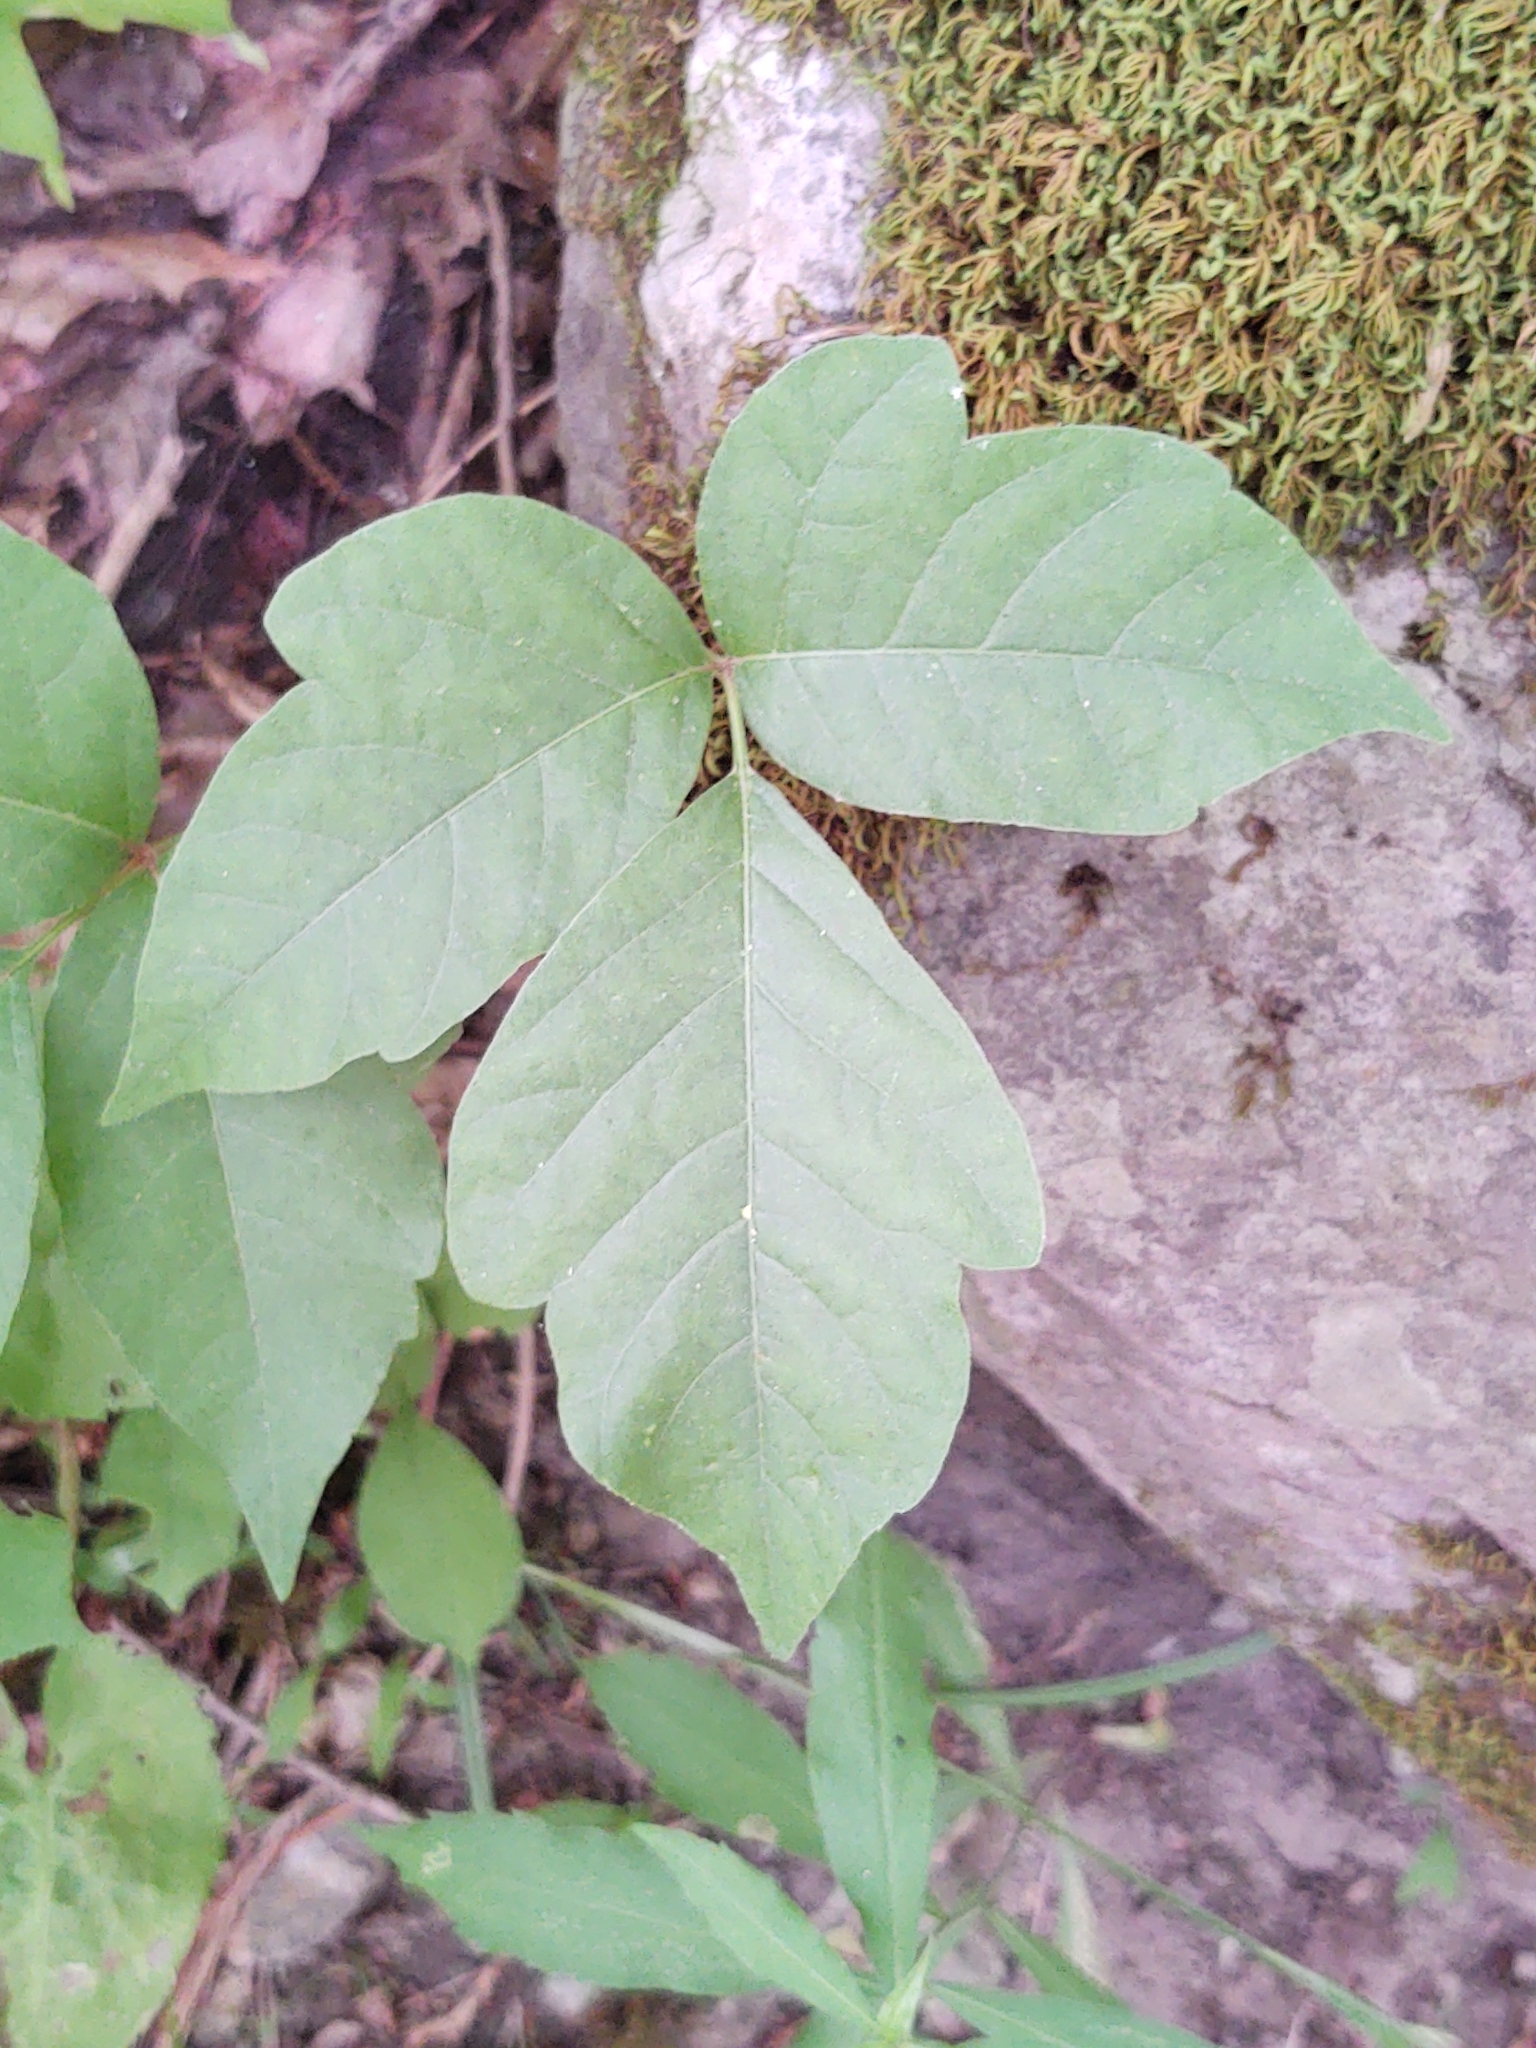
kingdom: Plantae
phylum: Tracheophyta
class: Magnoliopsida
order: Sapindales
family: Anacardiaceae
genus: Toxicodendron
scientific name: Toxicodendron radicans
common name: Poison ivy
